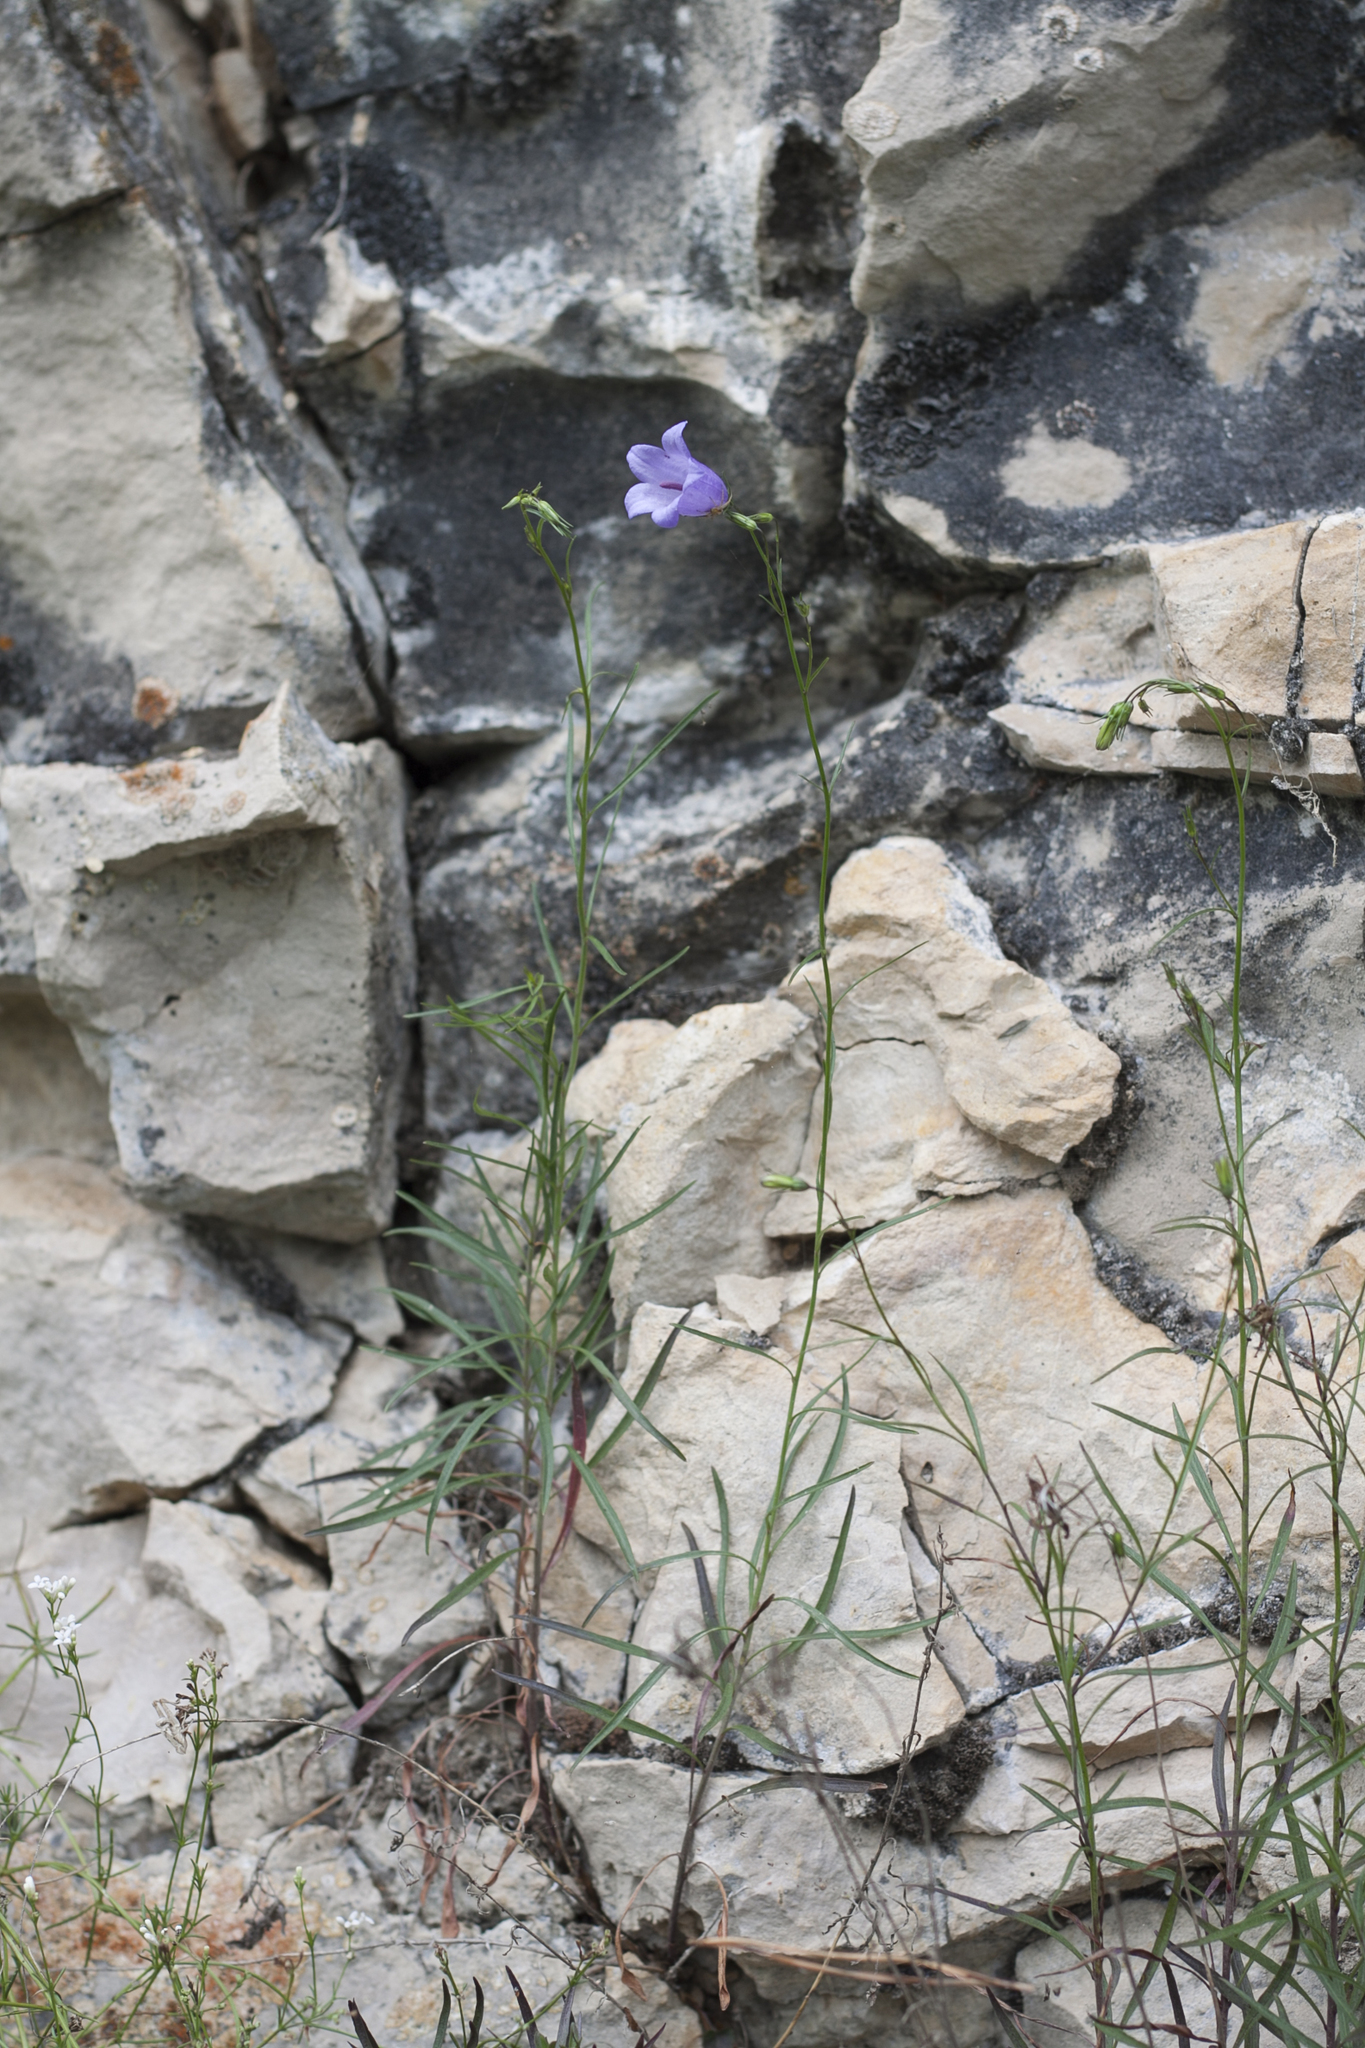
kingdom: Plantae
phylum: Tracheophyta
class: Magnoliopsida
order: Asterales
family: Campanulaceae
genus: Campanula
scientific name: Campanula rotundifolia
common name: Harebell
